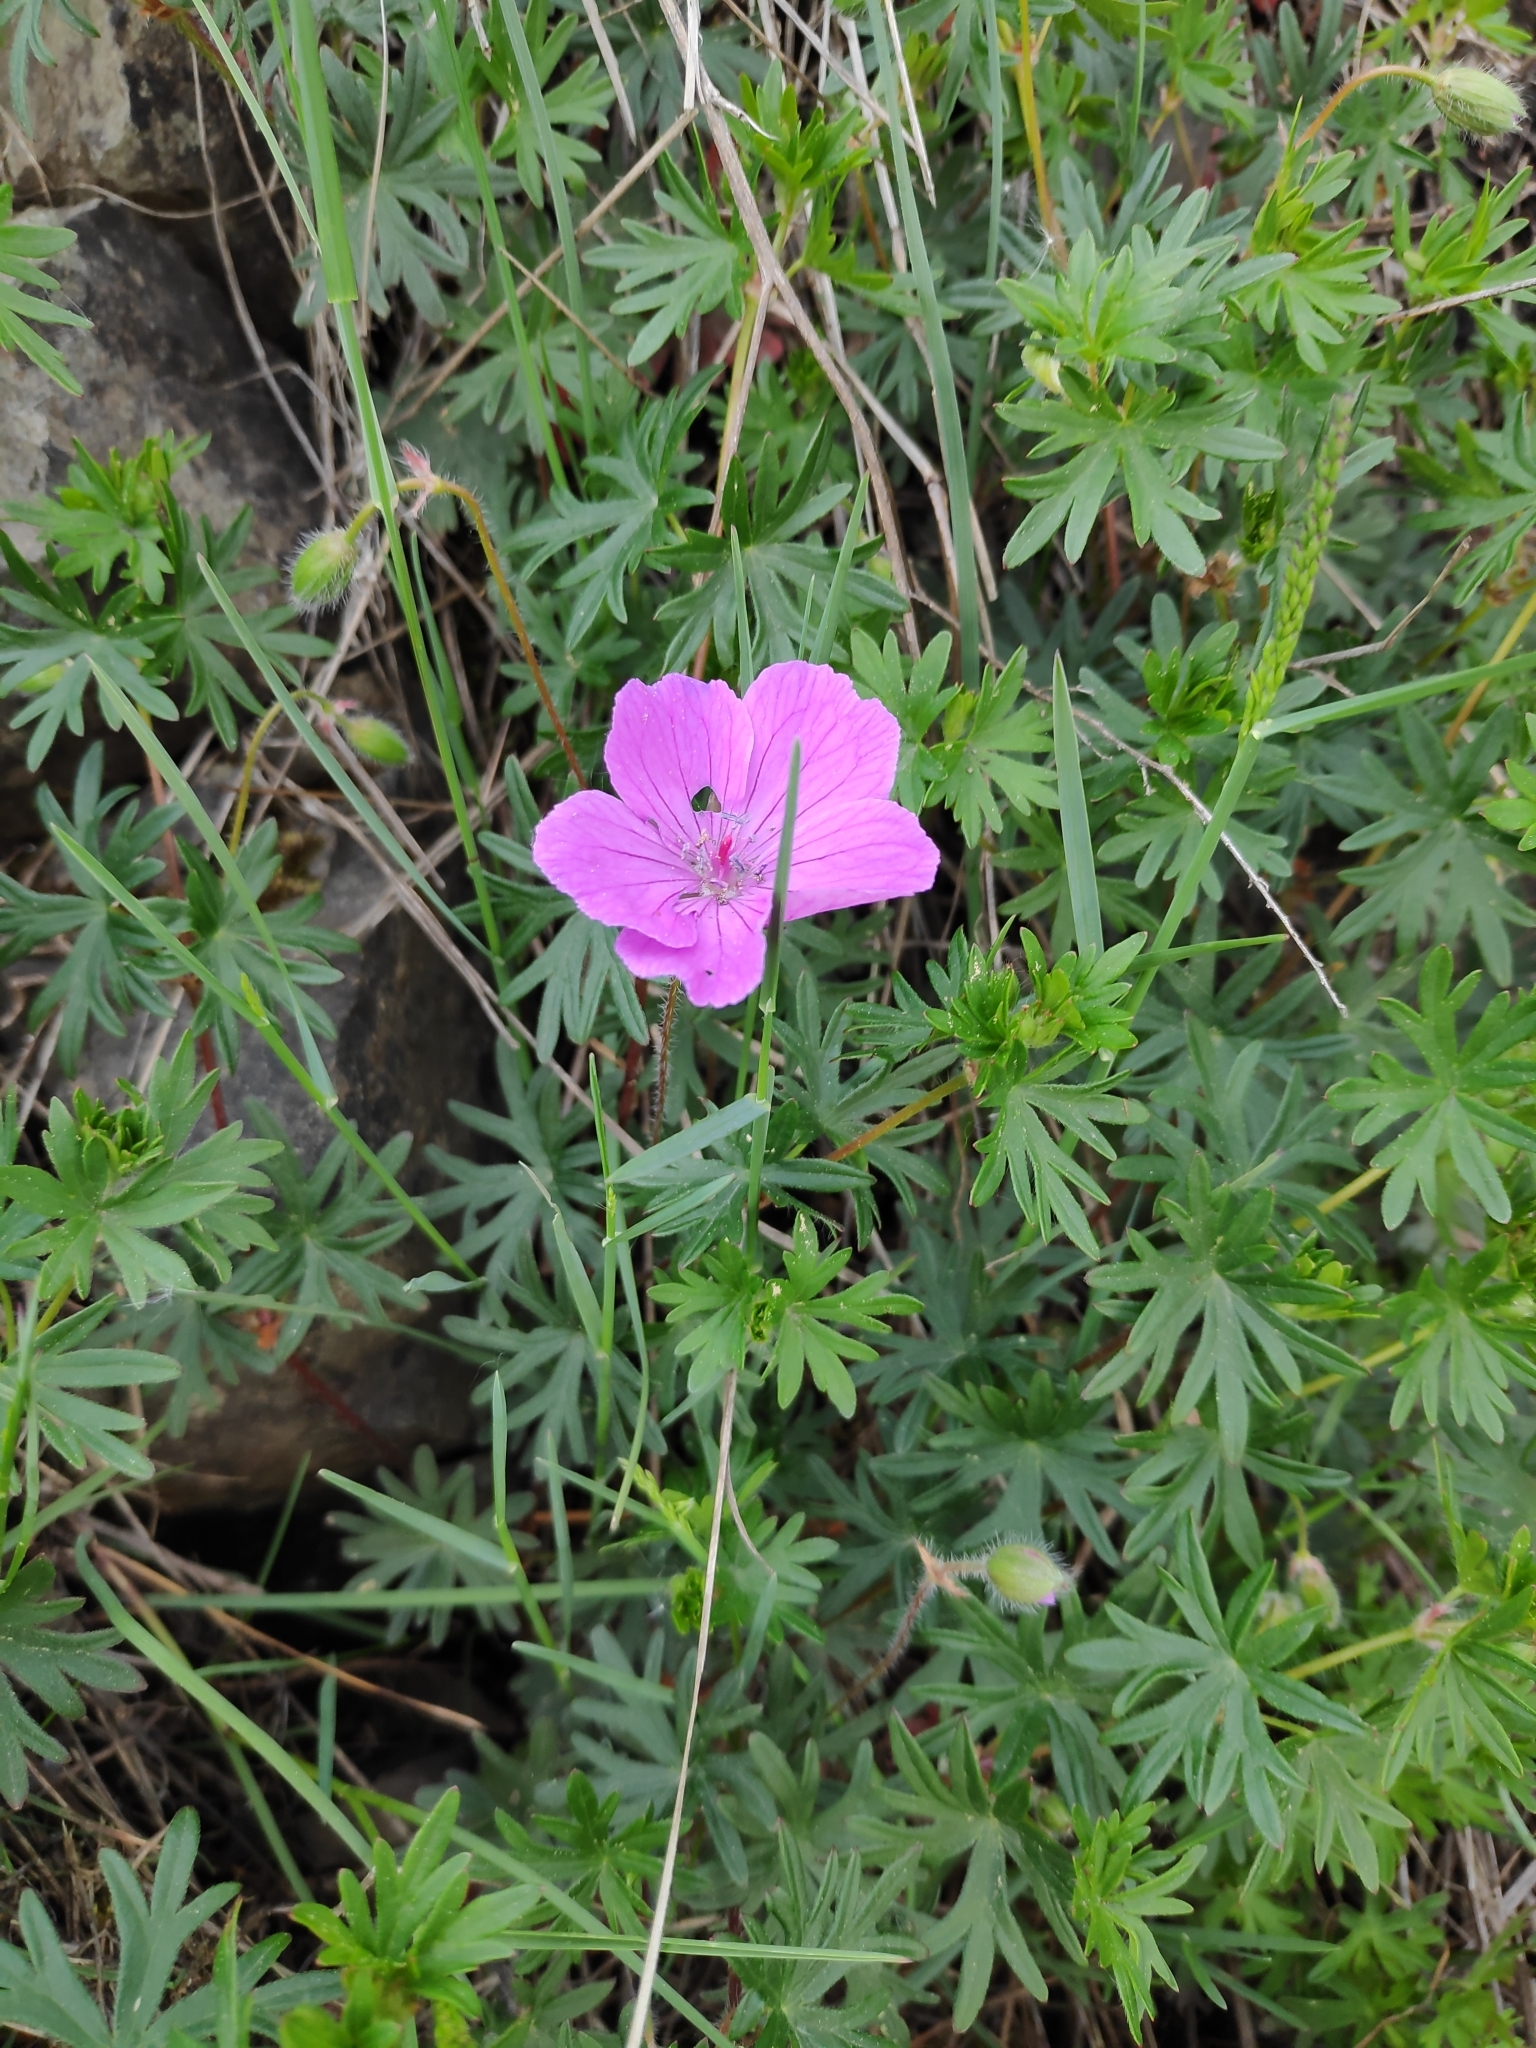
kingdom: Plantae
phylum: Tracheophyta
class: Magnoliopsida
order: Geraniales
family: Geraniaceae
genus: Geranium
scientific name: Geranium sanguineum
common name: Bloody crane's-bill
